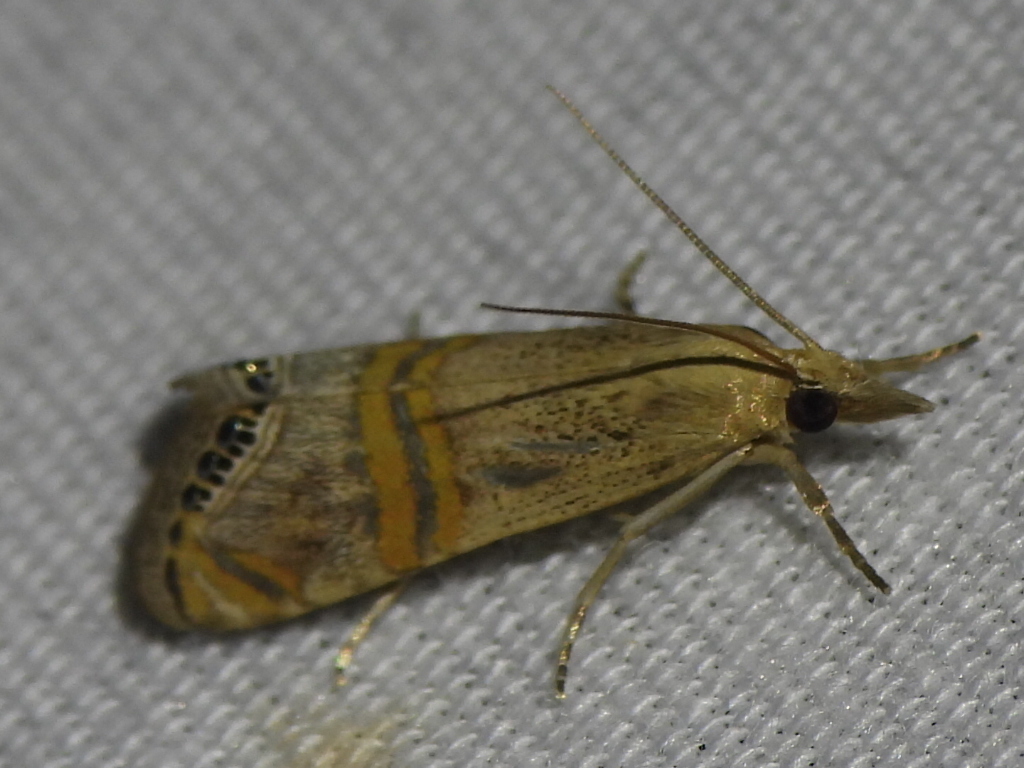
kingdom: Animalia
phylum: Arthropoda
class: Insecta
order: Lepidoptera
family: Crambidae
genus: Euchromius
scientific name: Euchromius ocellea
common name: Necklace veneer moth
